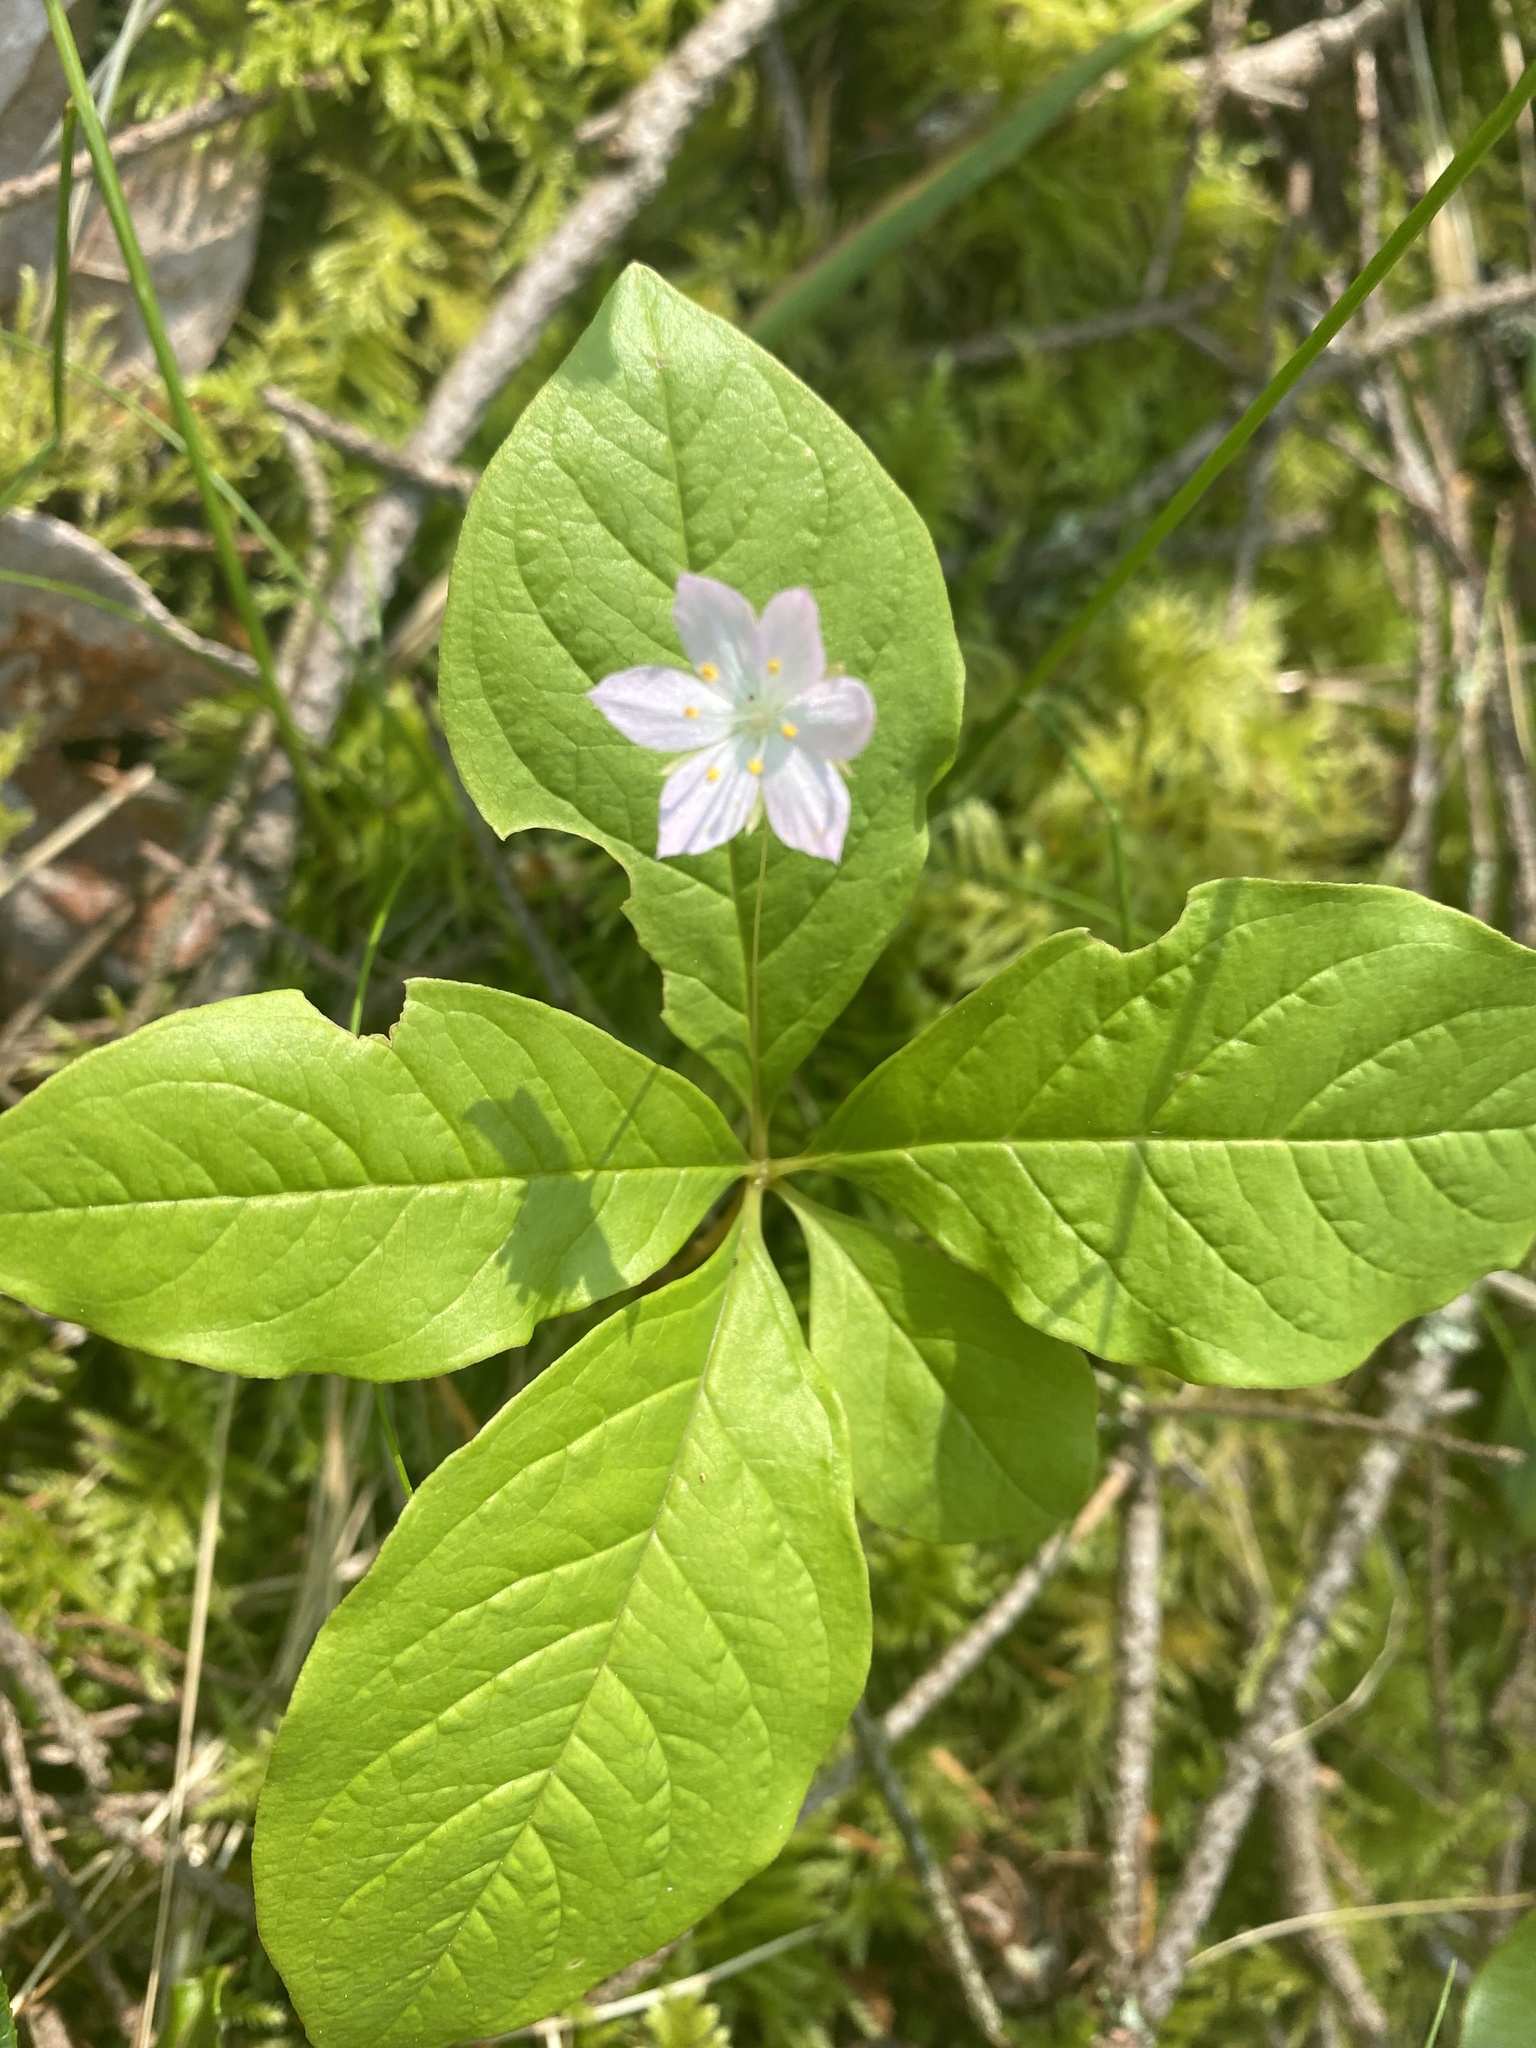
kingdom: Plantae
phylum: Tracheophyta
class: Magnoliopsida
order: Ericales
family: Primulaceae
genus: Lysimachia
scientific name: Lysimachia latifolia
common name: Pacific starflower
